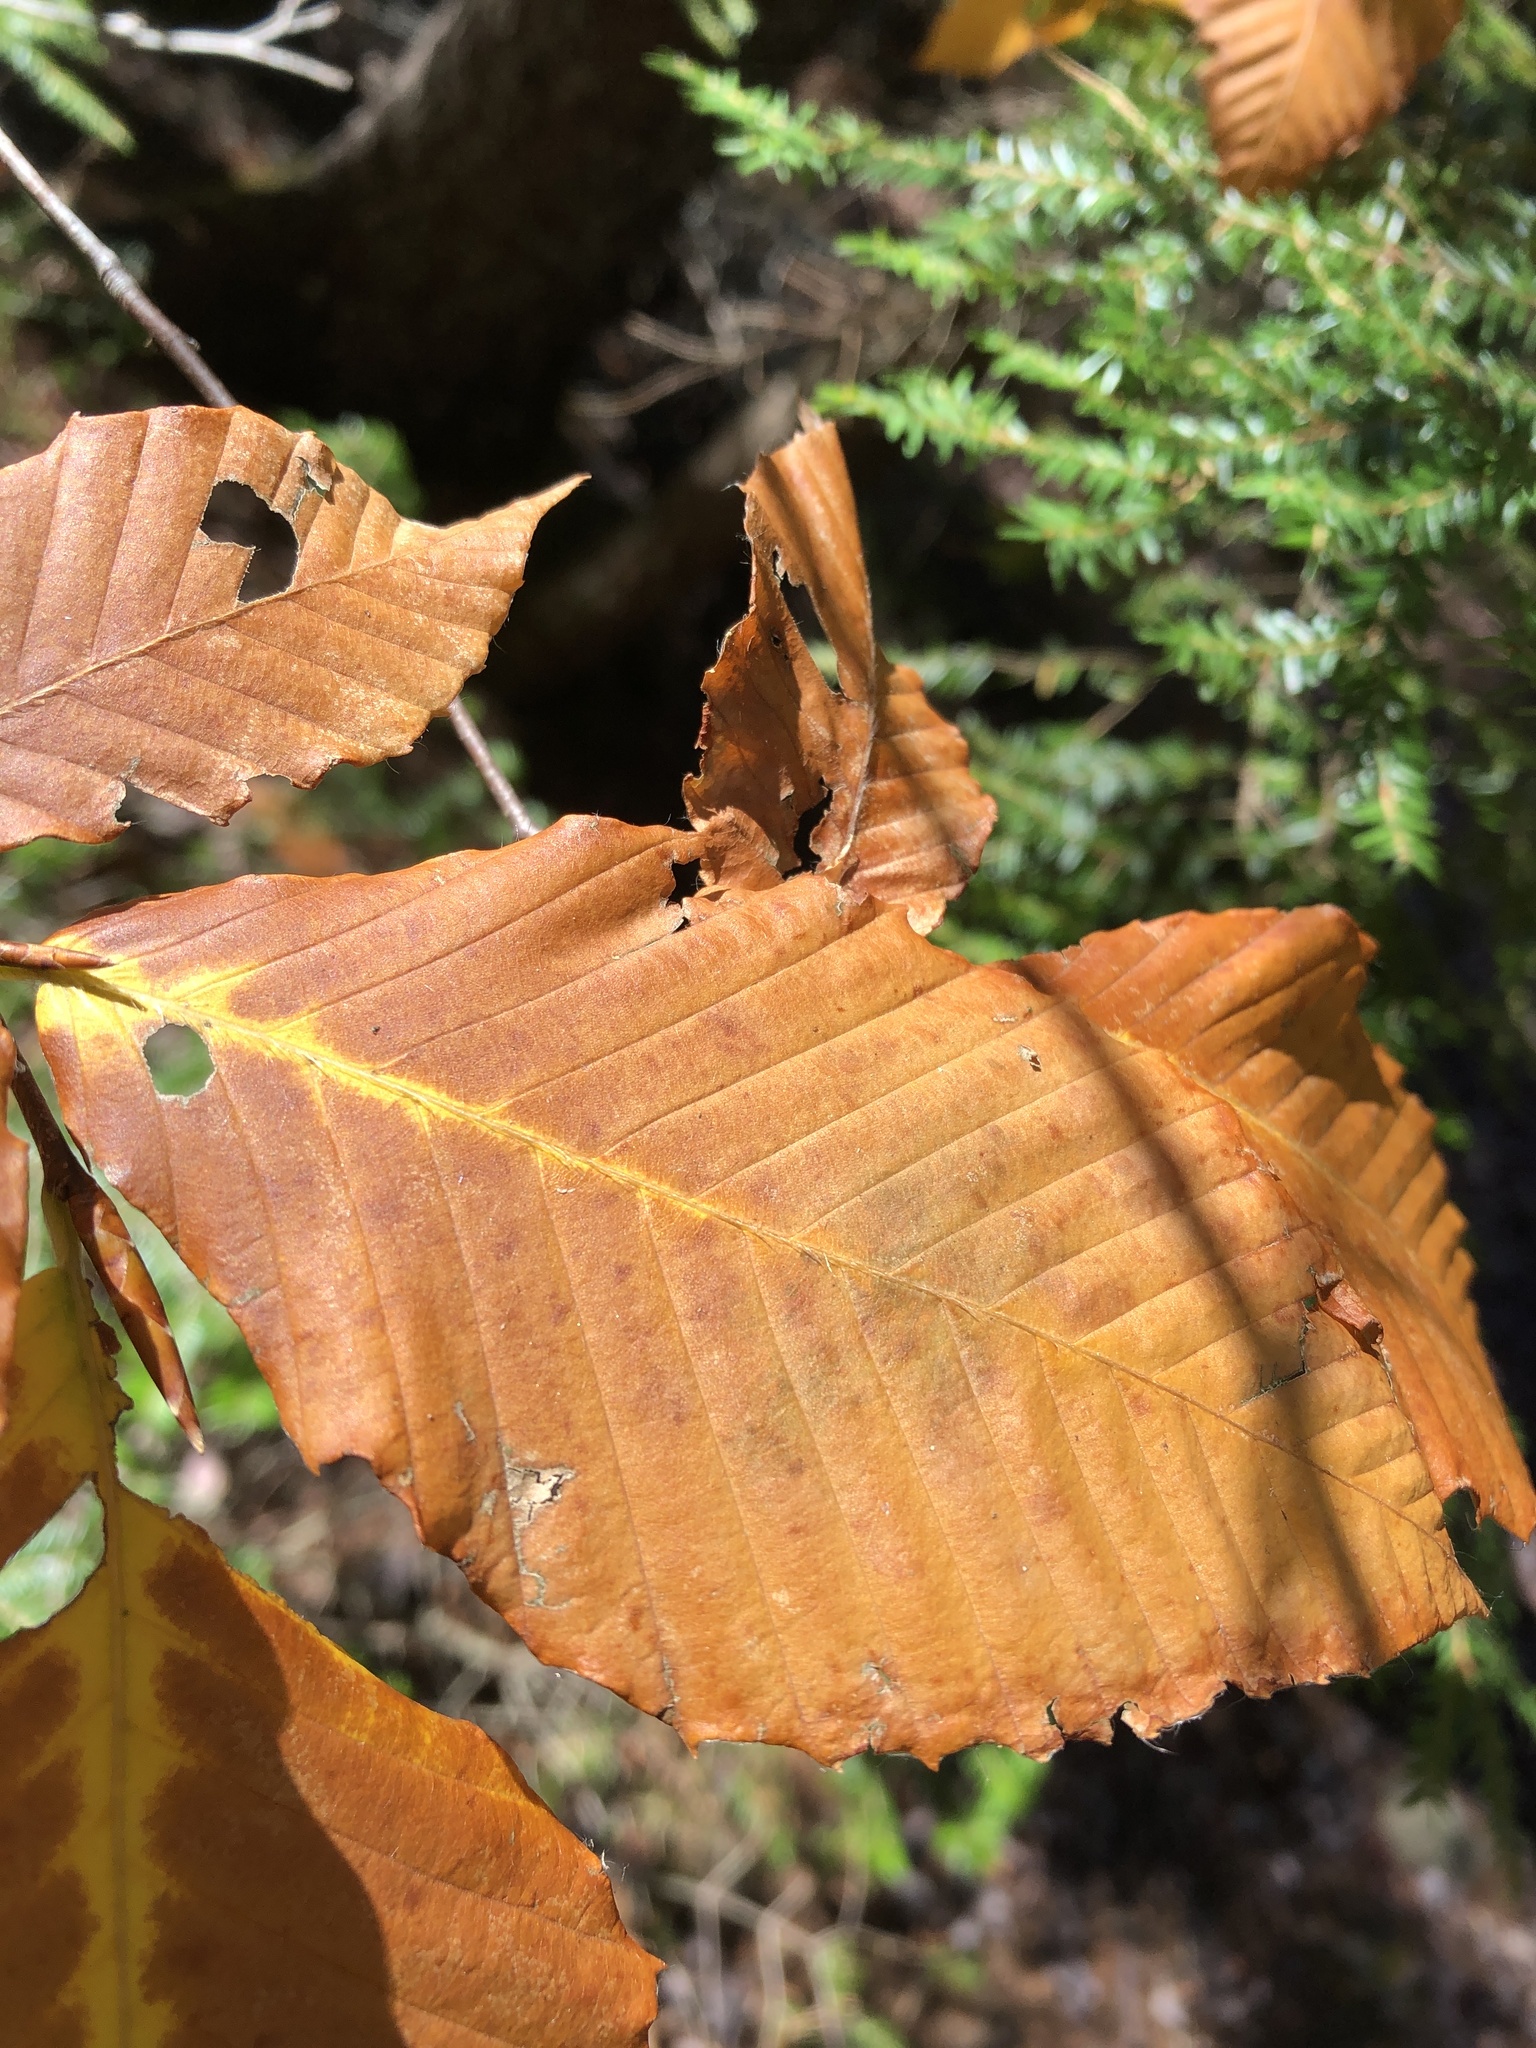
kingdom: Plantae
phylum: Tracheophyta
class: Magnoliopsida
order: Fagales
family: Fagaceae
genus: Fagus
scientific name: Fagus grandifolia
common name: American beech
